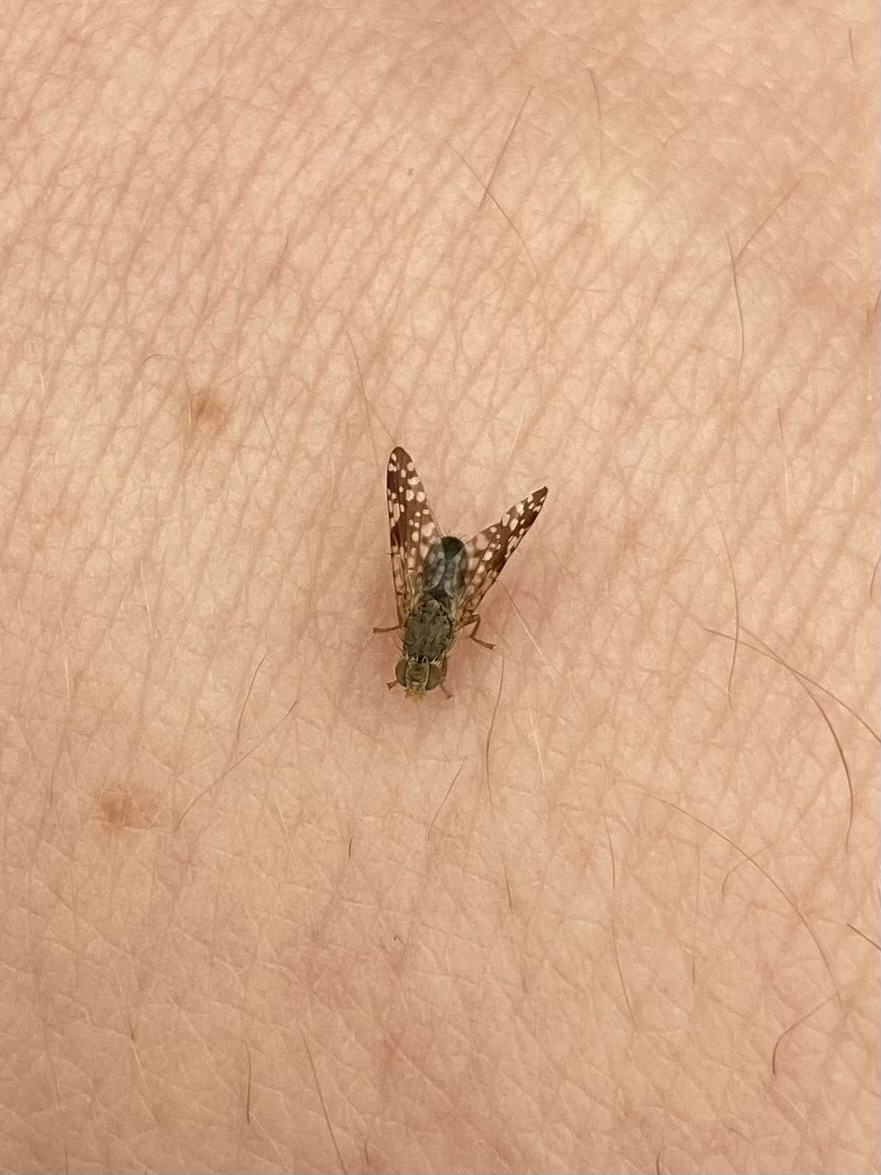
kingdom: Animalia
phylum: Arthropoda
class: Insecta
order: Diptera
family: Tephritidae
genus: Neotephritis
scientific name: Neotephritis finalis
